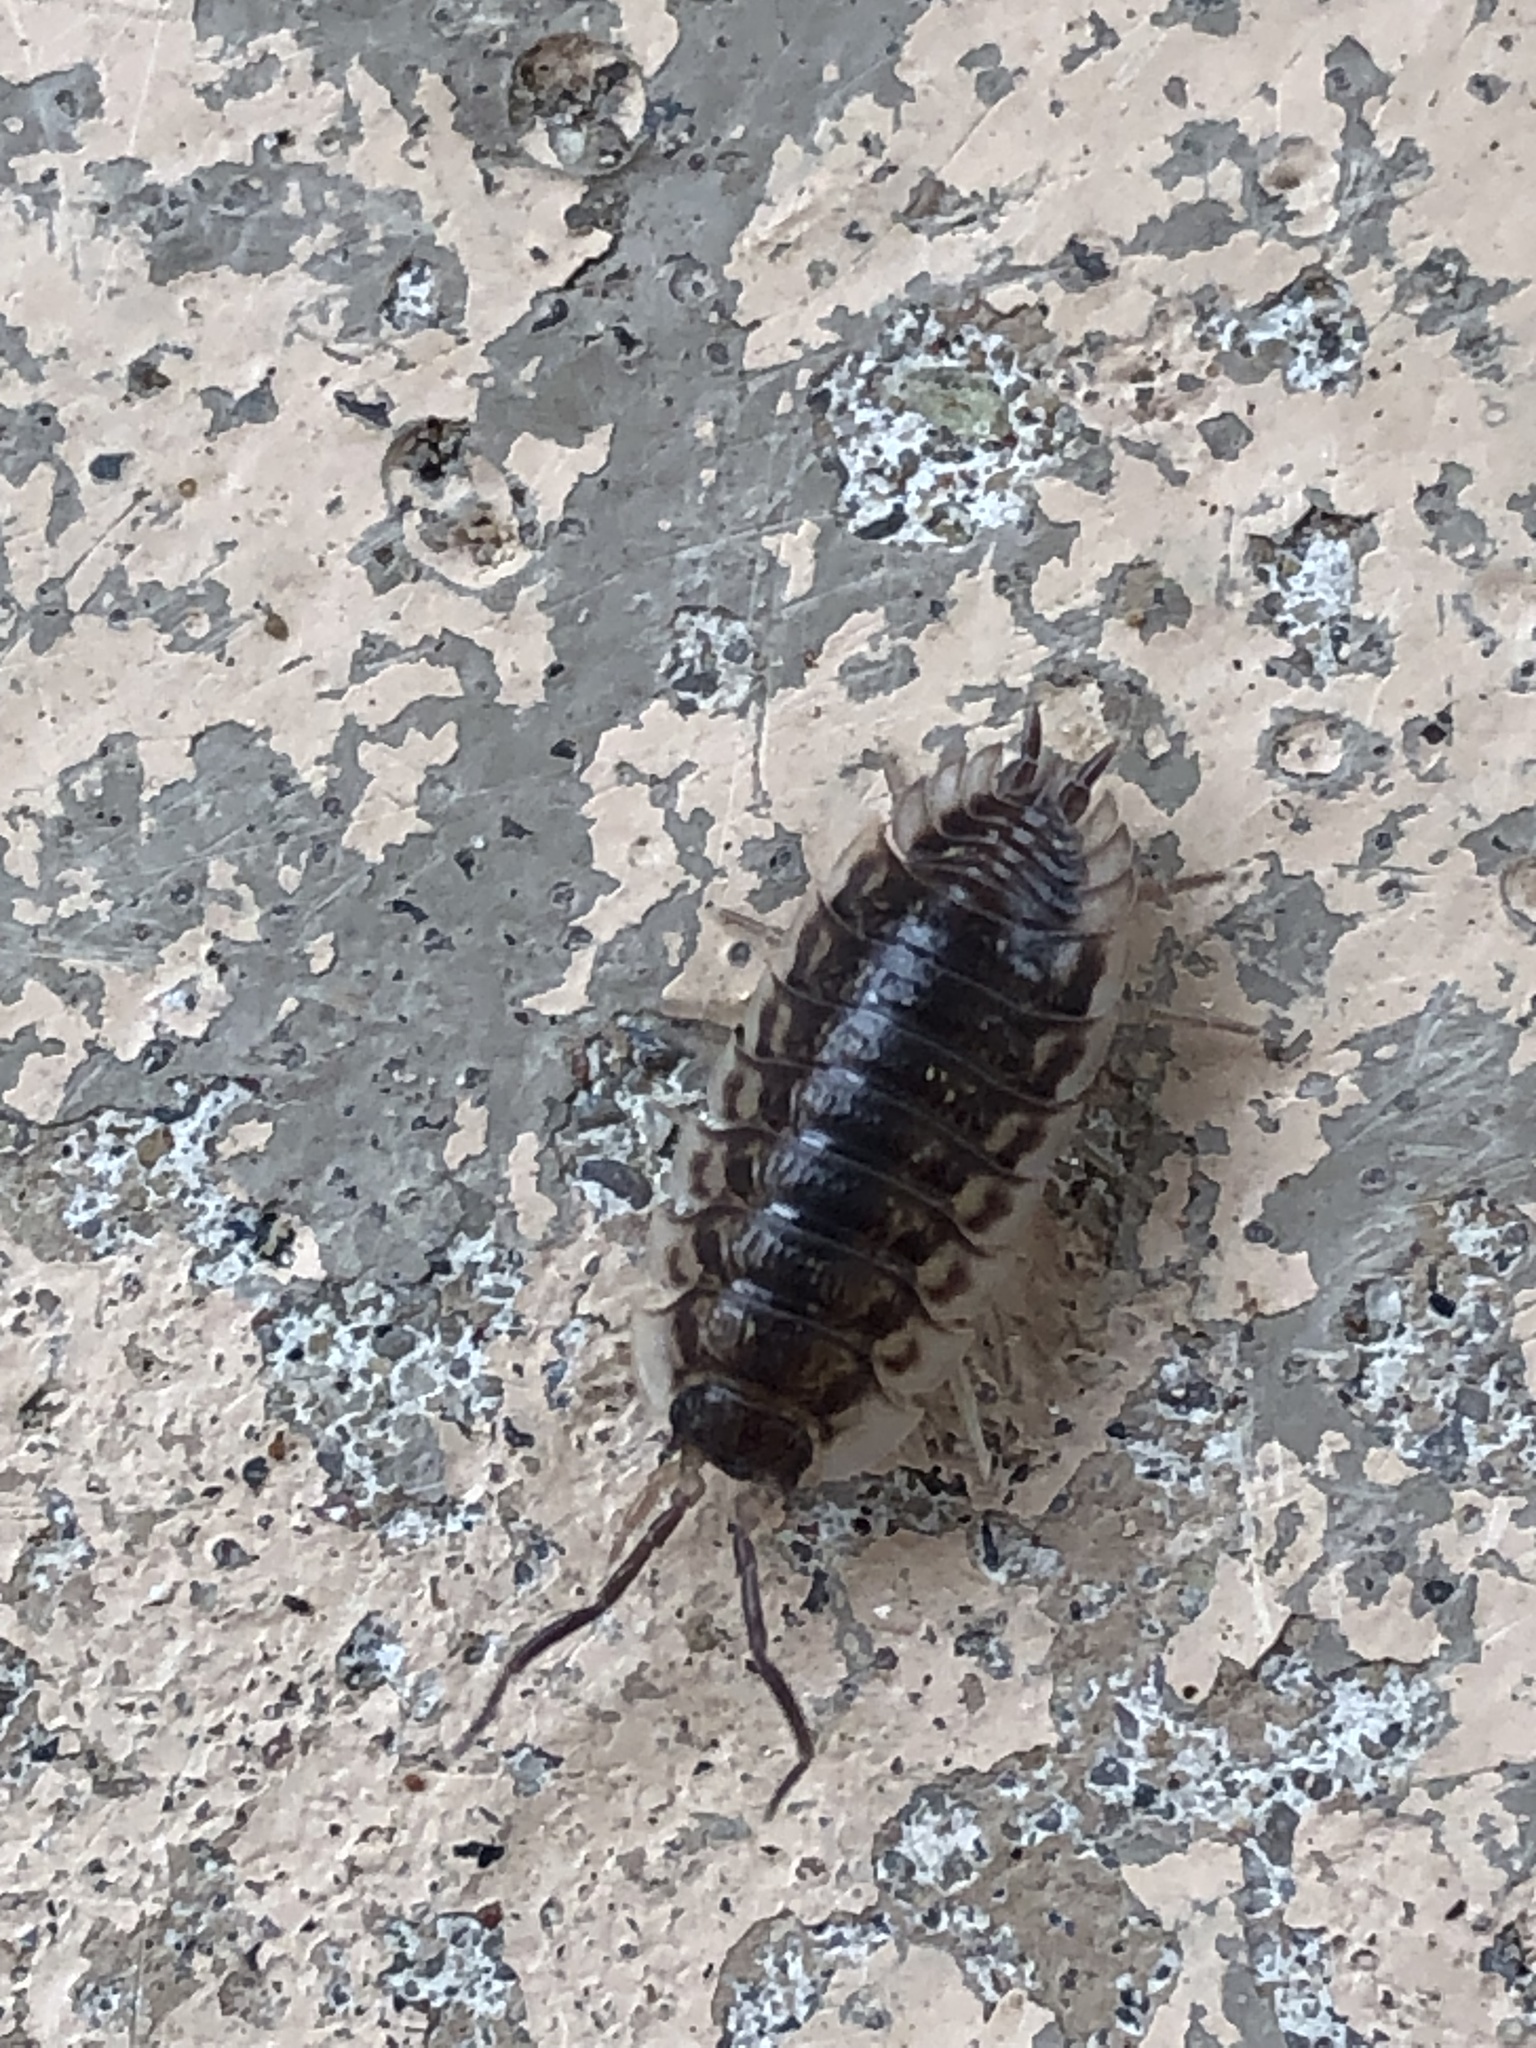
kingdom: Animalia
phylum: Arthropoda
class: Malacostraca
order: Isopoda
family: Oniscidae
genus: Oniscus
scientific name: Oniscus asellus
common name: Common shiny woodlouse
